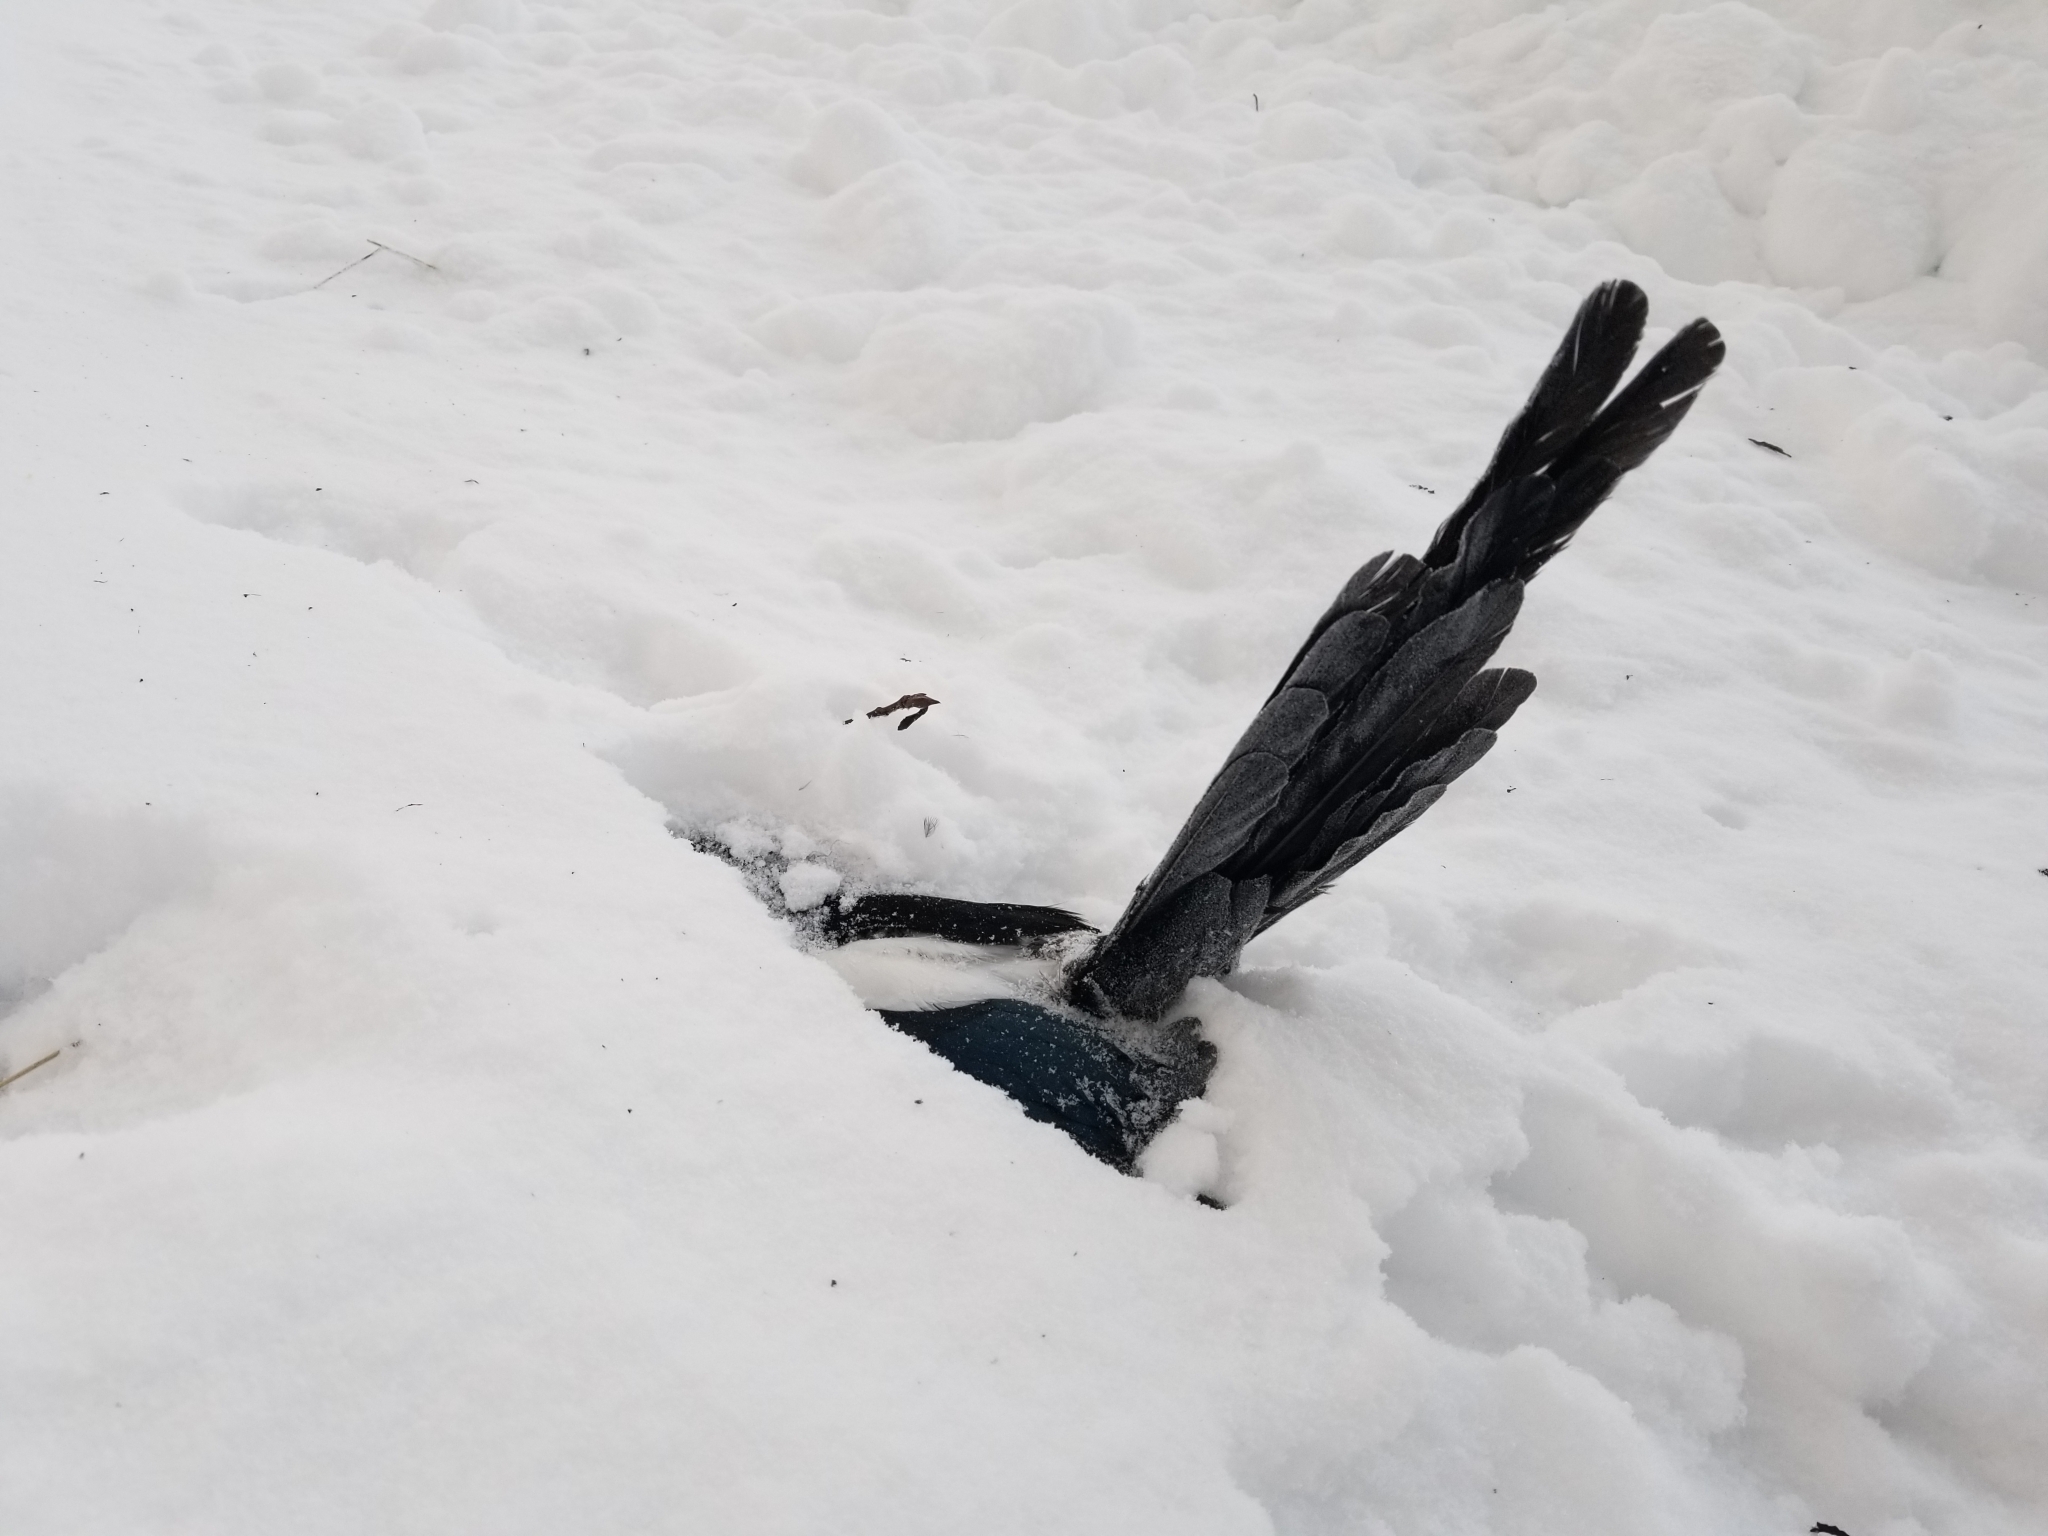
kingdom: Animalia
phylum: Chordata
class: Aves
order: Passeriformes
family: Corvidae
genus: Pica
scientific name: Pica hudsonia
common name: Black-billed magpie
